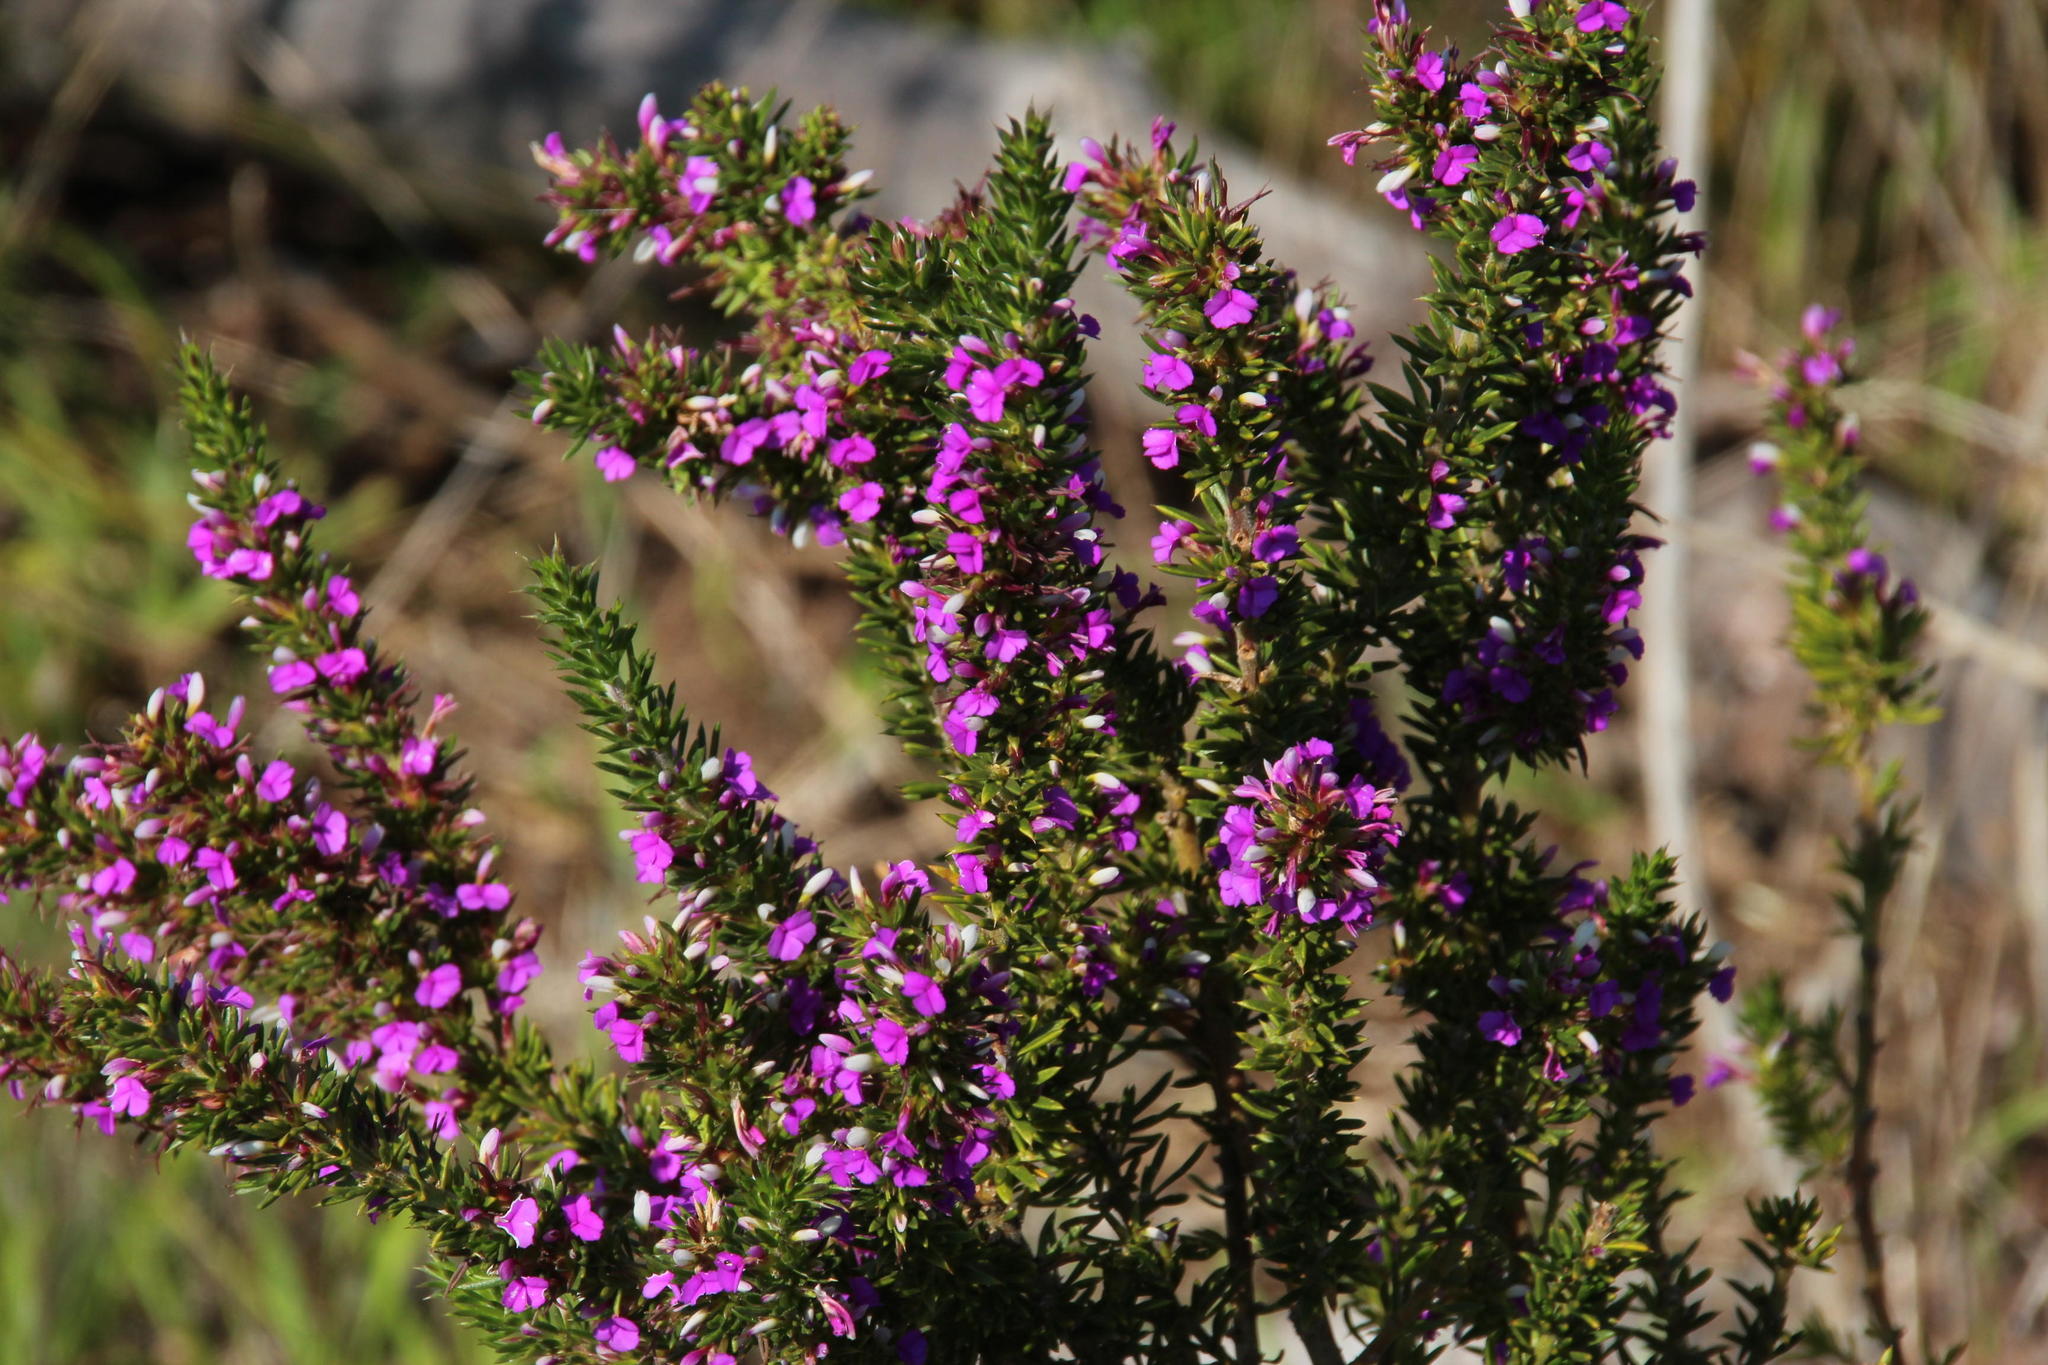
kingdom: Plantae
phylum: Tracheophyta
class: Magnoliopsida
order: Fabales
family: Polygalaceae
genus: Muraltia
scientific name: Muraltia heisteria
